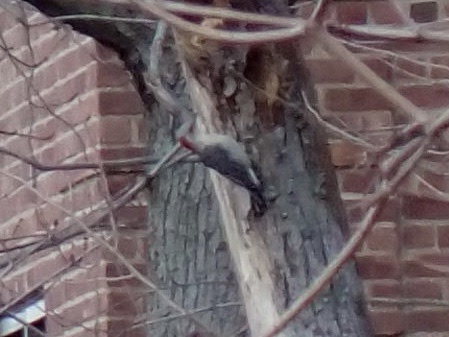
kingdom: Animalia
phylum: Chordata
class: Aves
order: Piciformes
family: Picidae
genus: Melanerpes
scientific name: Melanerpes carolinus
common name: Red-bellied woodpecker
